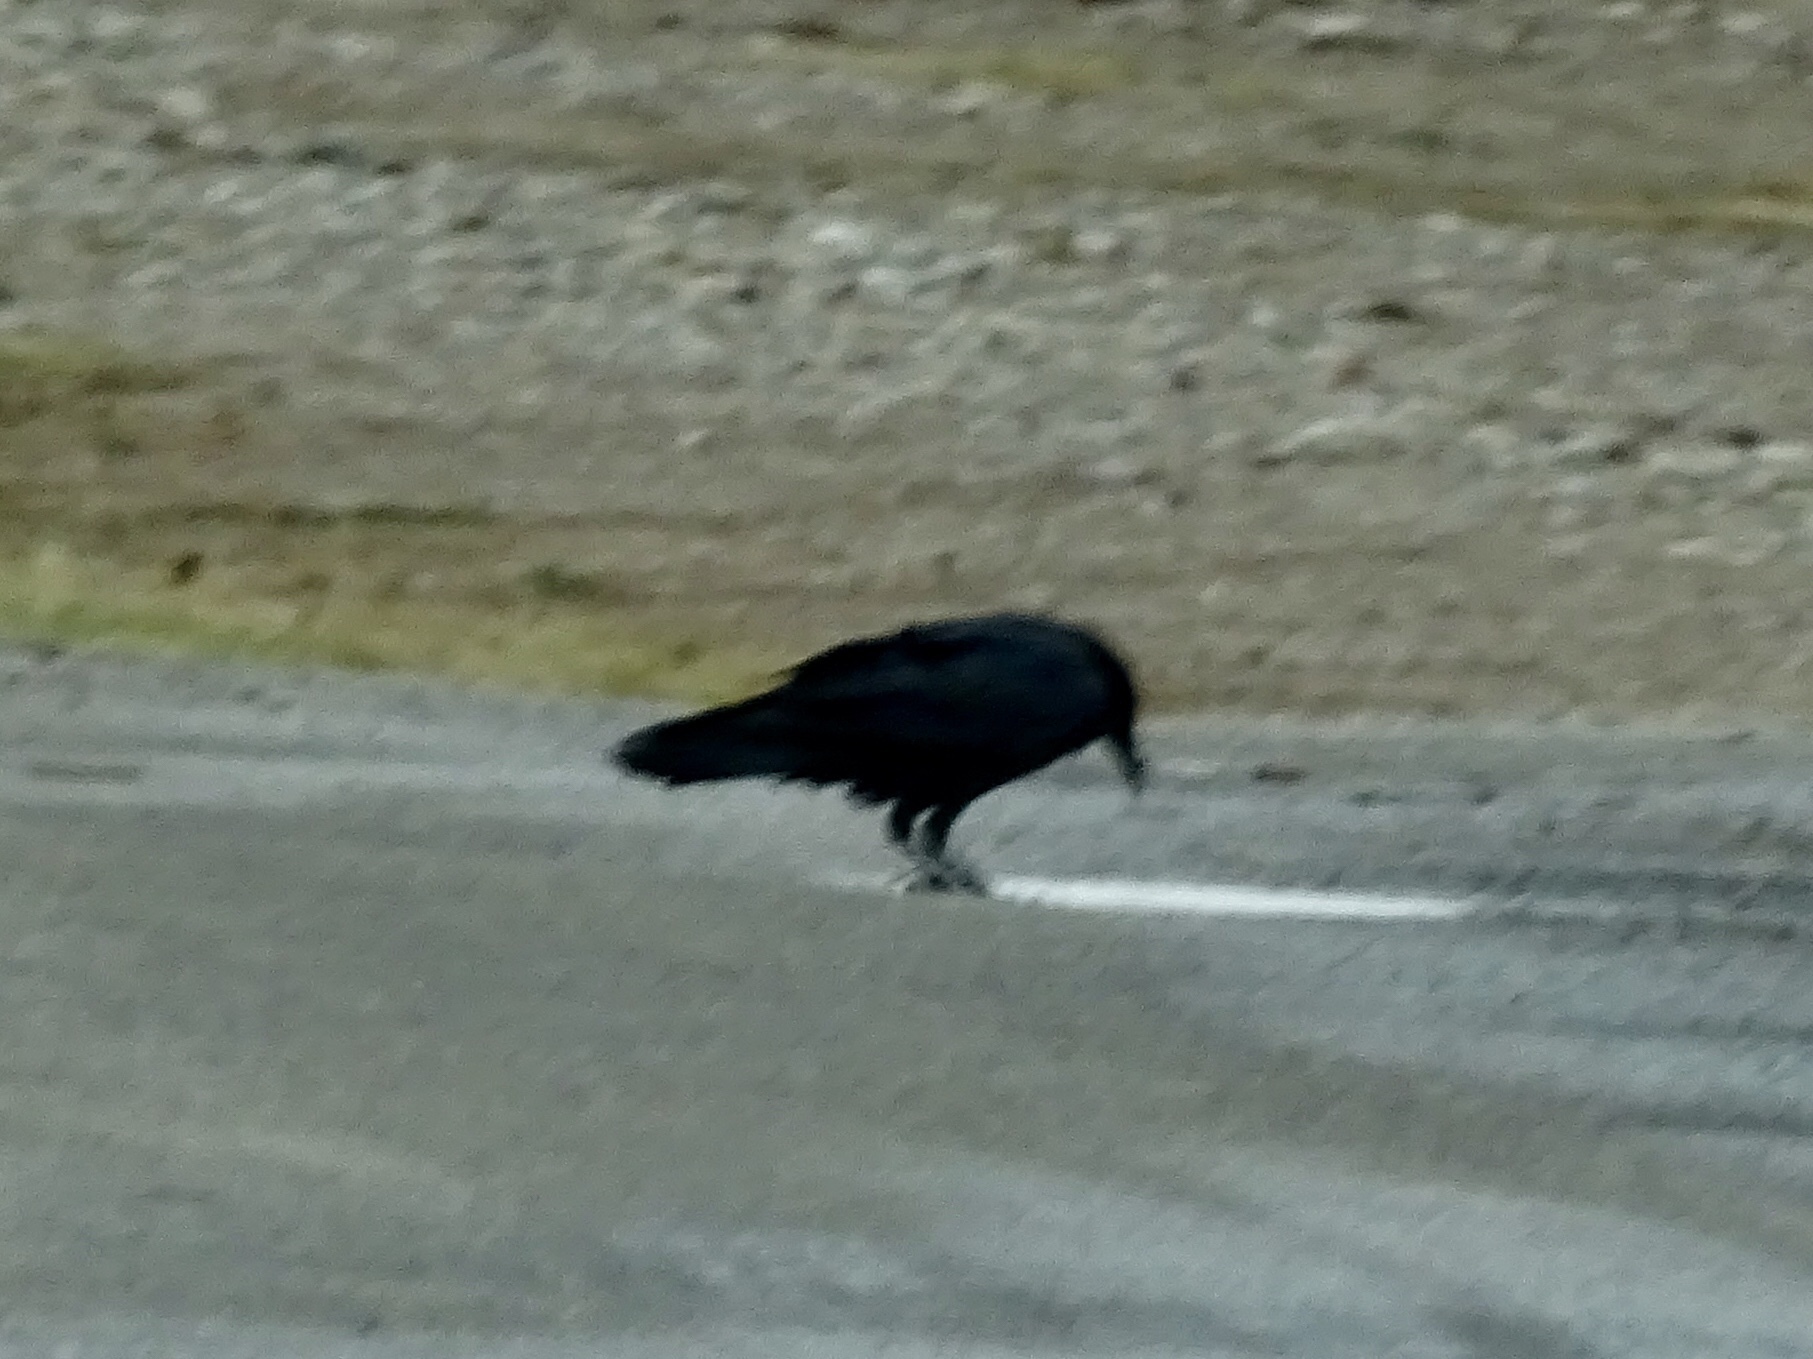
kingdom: Animalia
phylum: Chordata
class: Aves
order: Passeriformes
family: Corvidae
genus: Corvus
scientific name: Corvus corax
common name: Common raven
